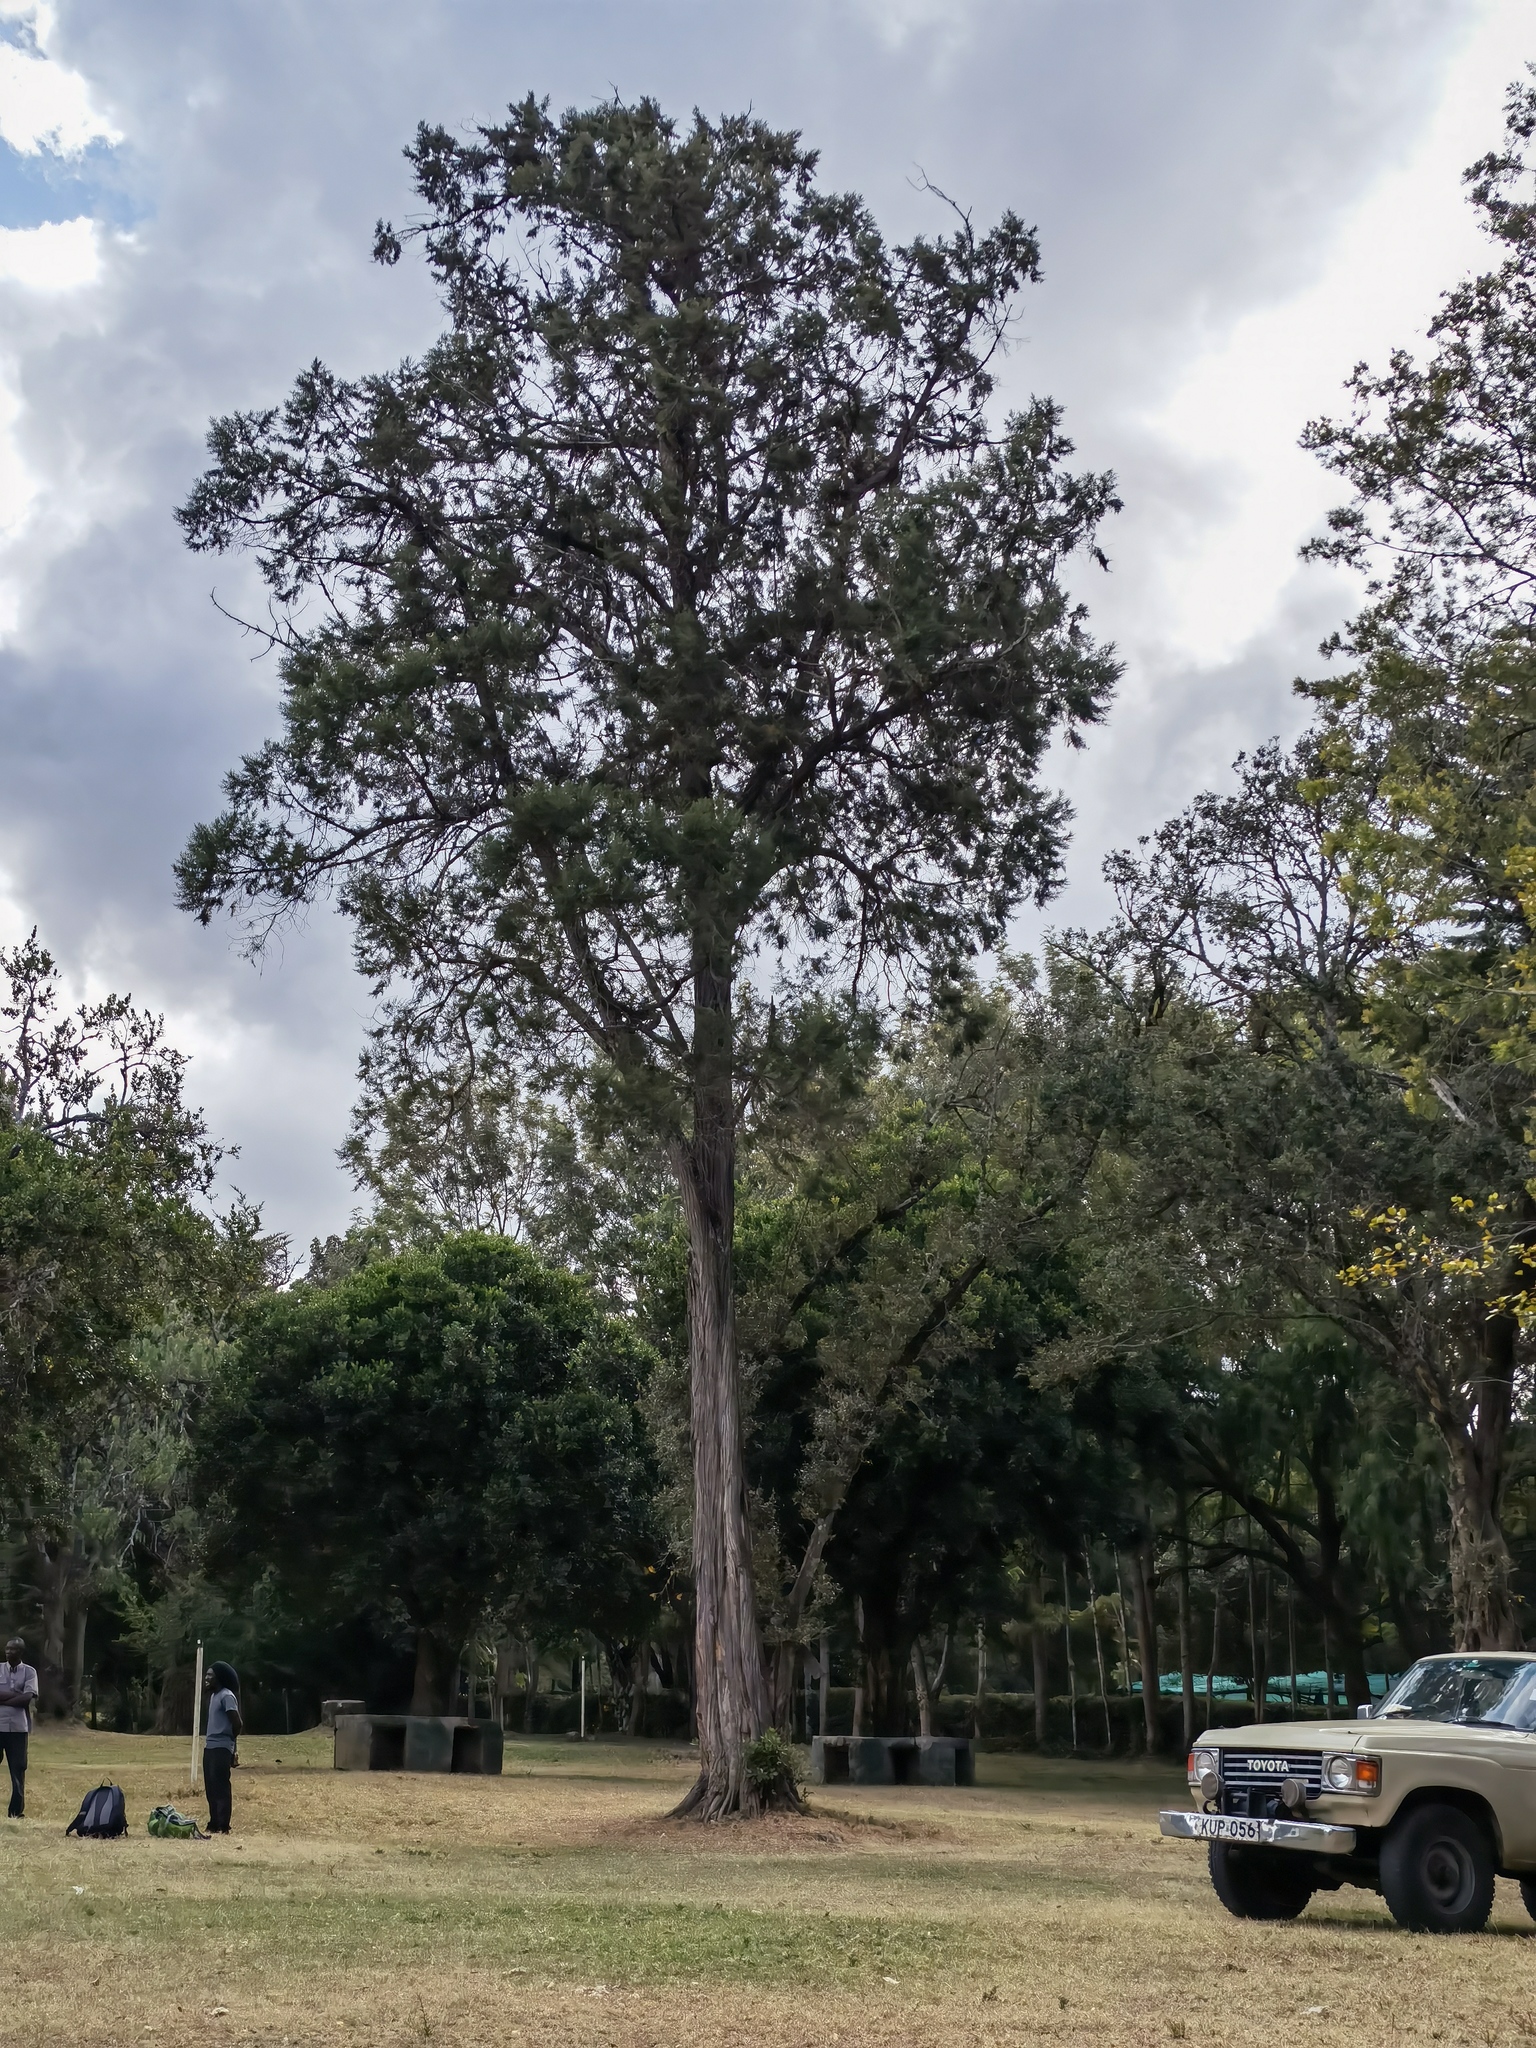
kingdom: Plantae
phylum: Tracheophyta
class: Pinopsida
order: Pinales
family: Cupressaceae
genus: Juniperus
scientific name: Juniperus procera
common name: African juniper
